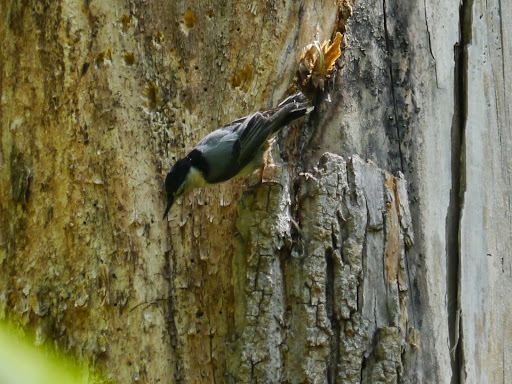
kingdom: Animalia
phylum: Chordata
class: Aves
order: Passeriformes
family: Sittidae
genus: Sitta
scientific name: Sitta carolinensis
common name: White-breasted nuthatch
